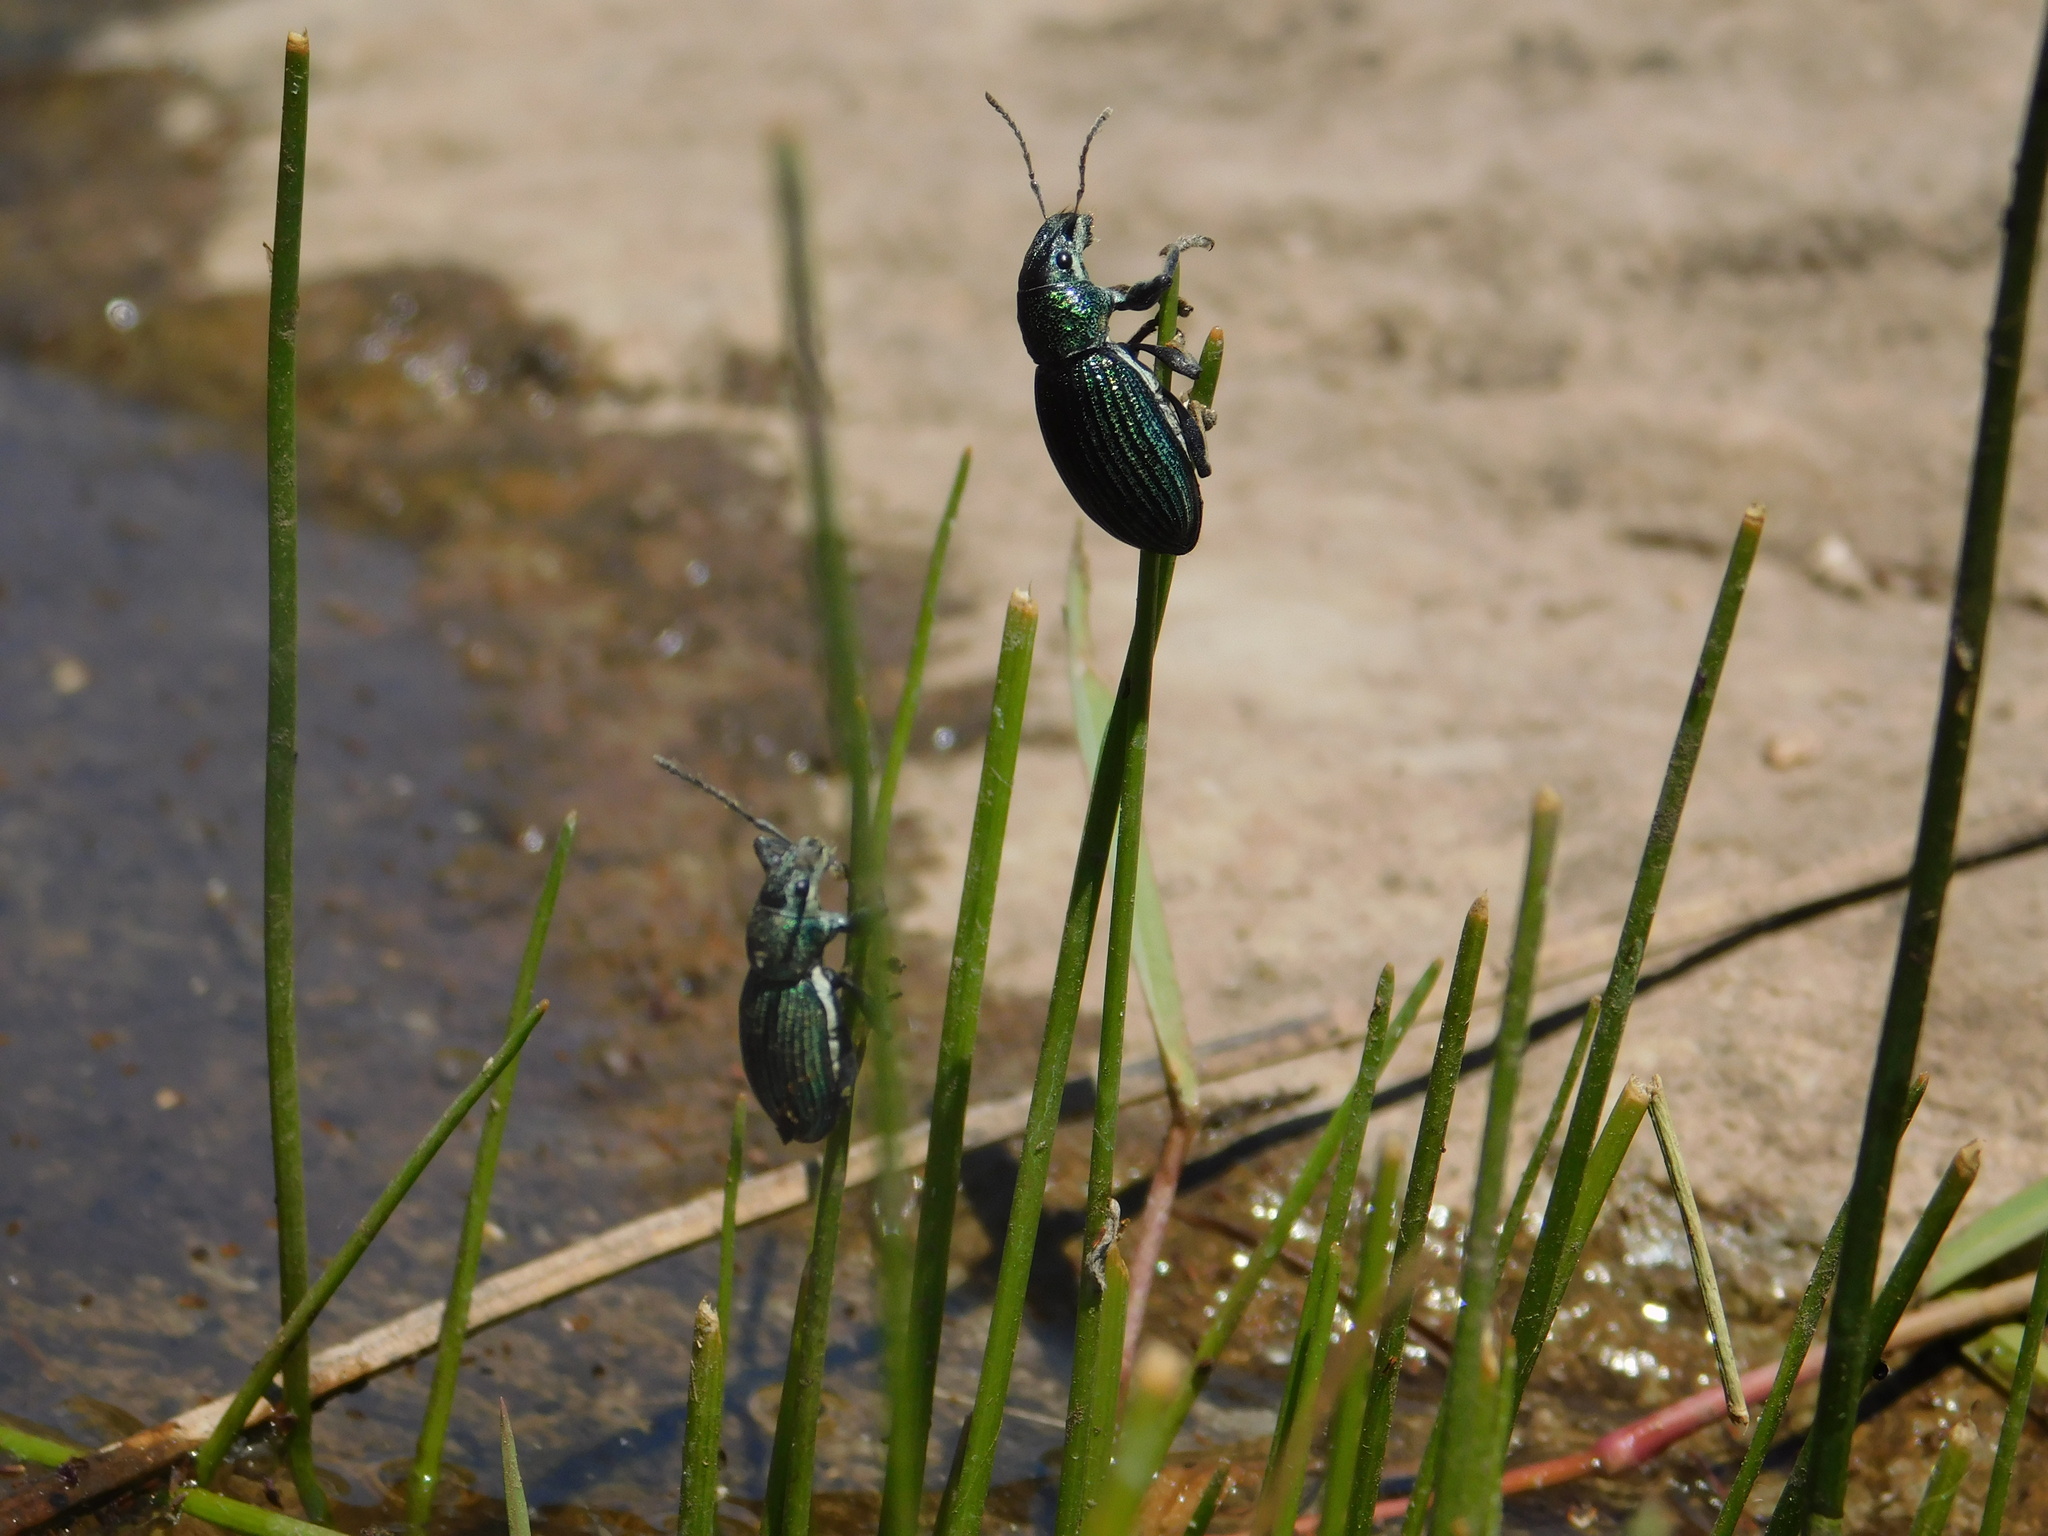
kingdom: Animalia
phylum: Arthropoda
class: Insecta
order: Coleoptera
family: Curculionidae
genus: Naupactus
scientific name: Naupactus dives
